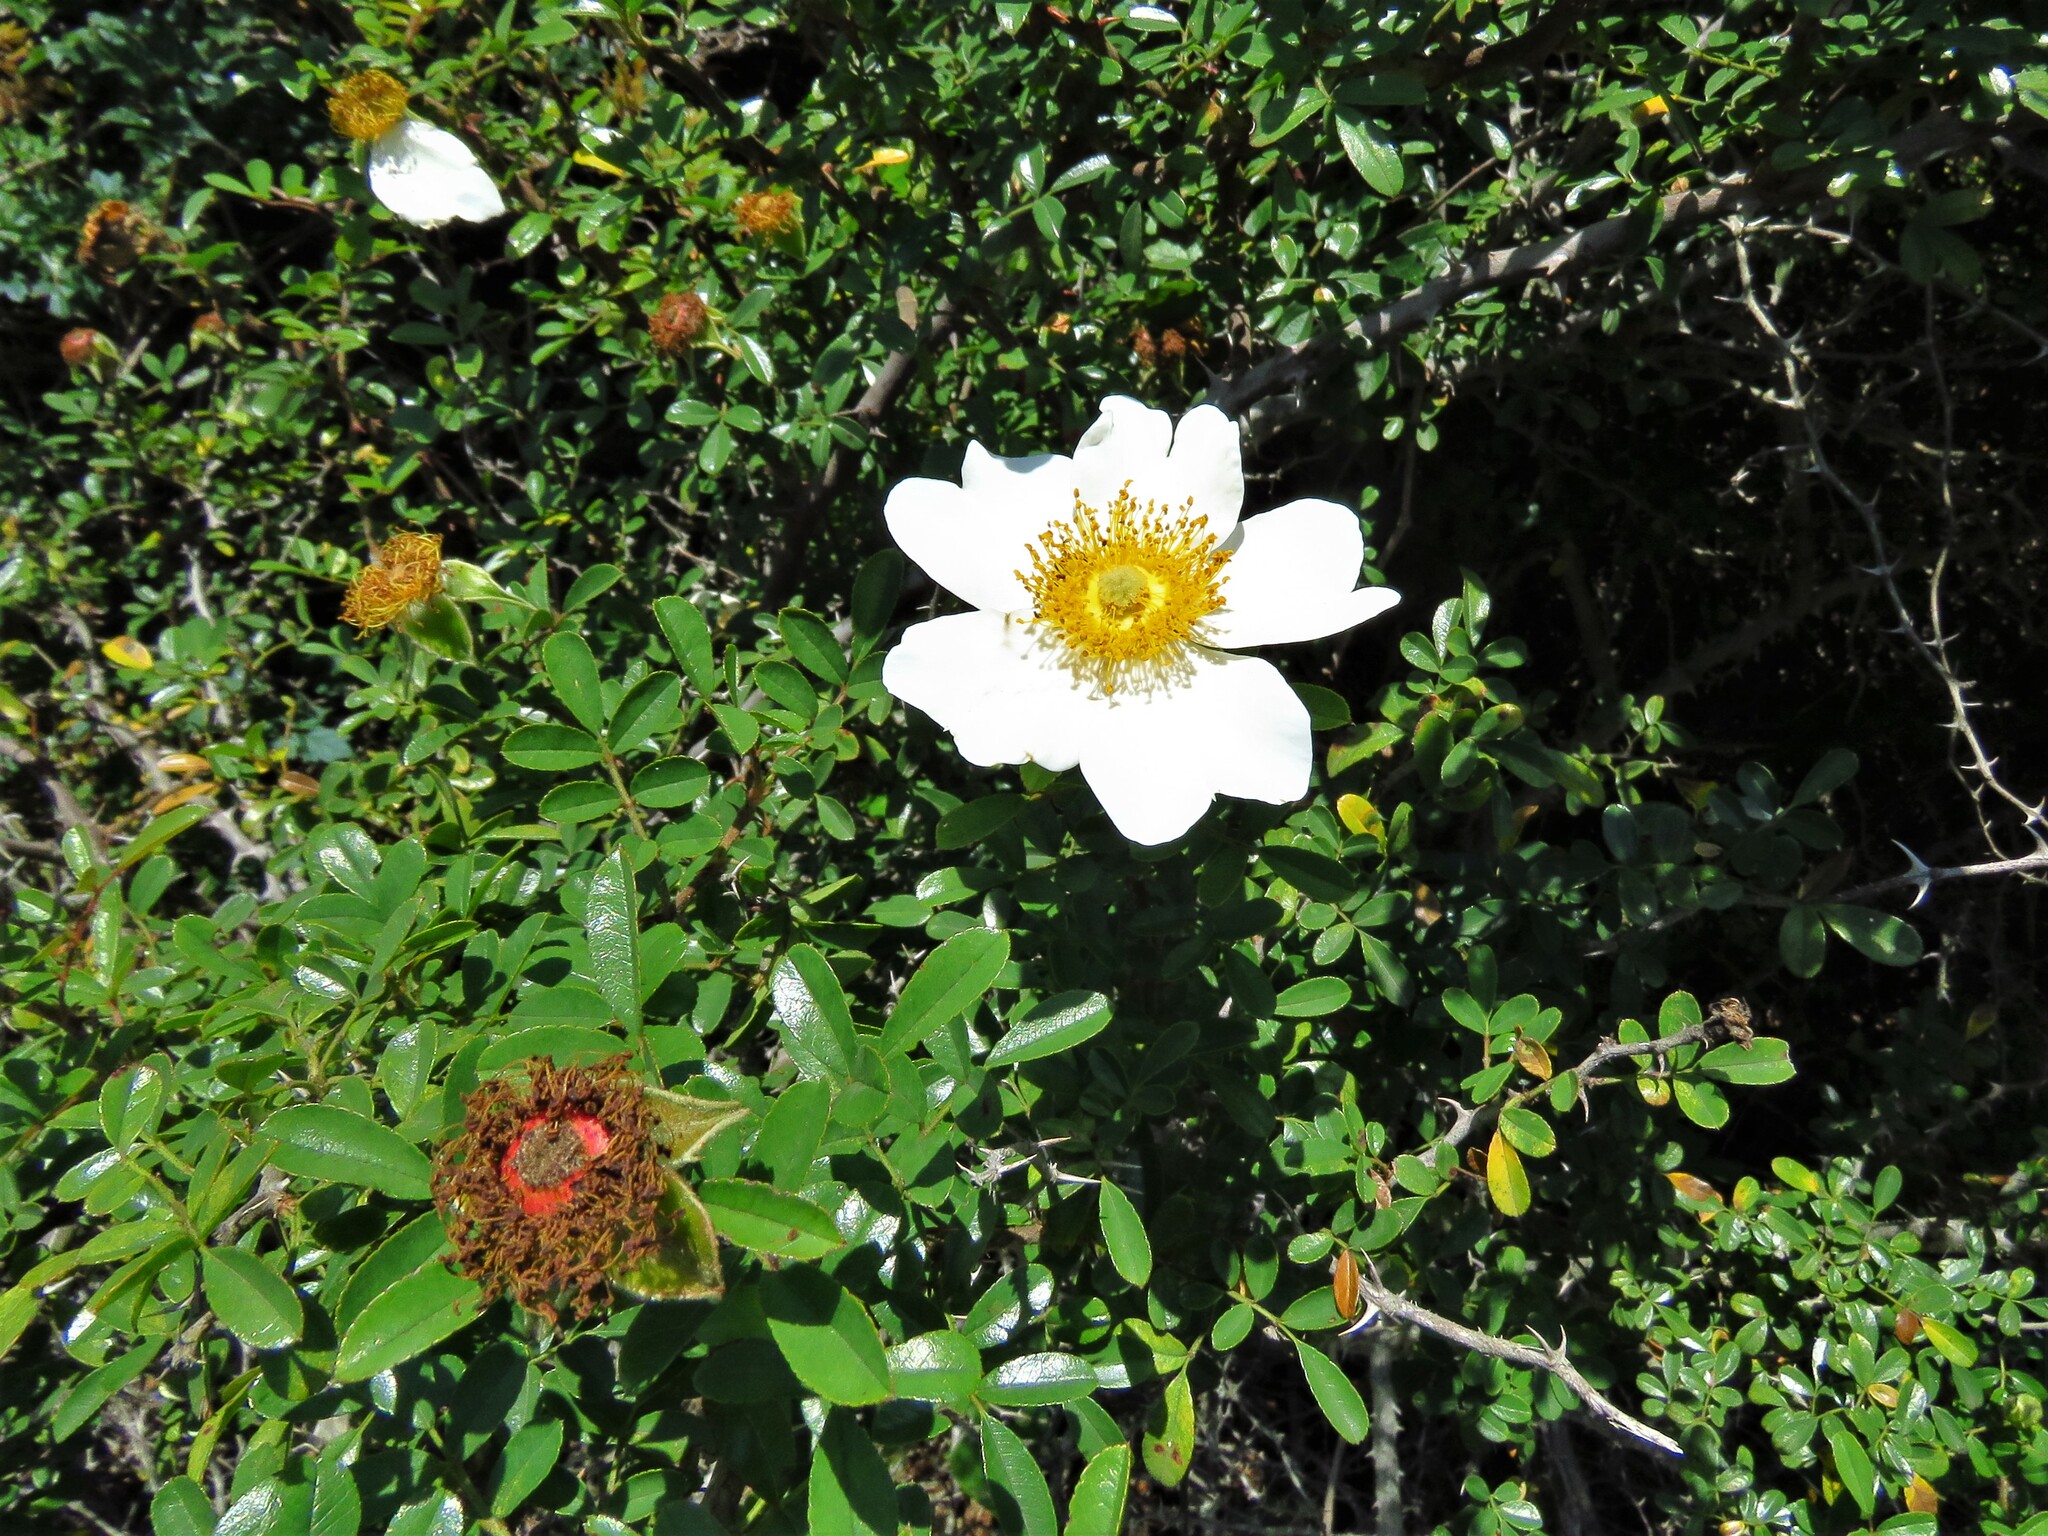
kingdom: Plantae
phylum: Tracheophyta
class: Magnoliopsida
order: Rosales
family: Rosaceae
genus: Rosa
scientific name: Rosa bracteata
